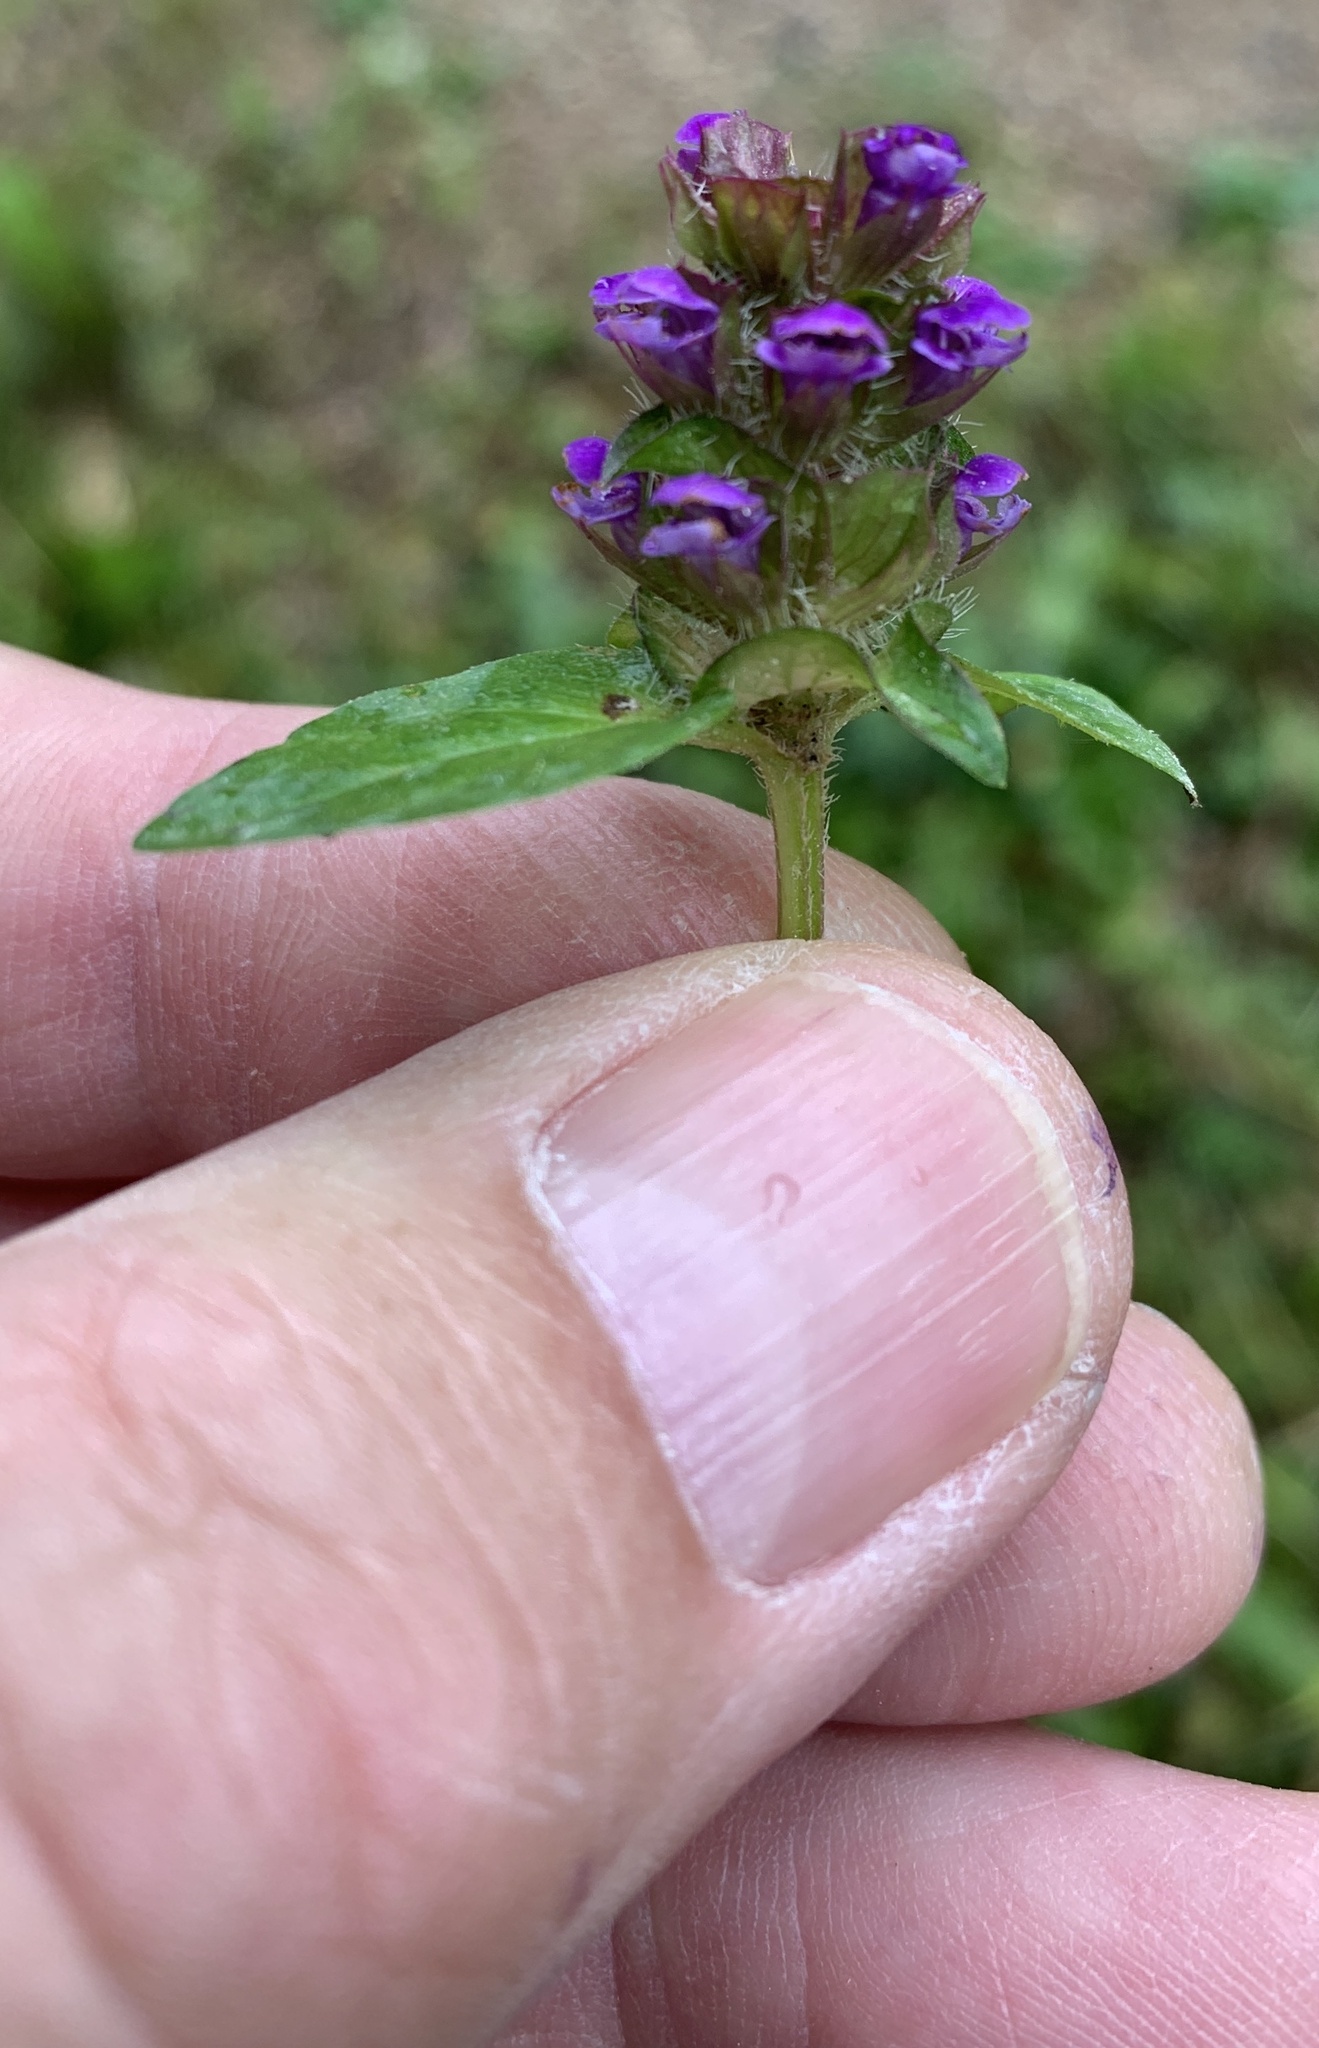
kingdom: Plantae
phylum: Tracheophyta
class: Magnoliopsida
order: Lamiales
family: Lamiaceae
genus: Prunella
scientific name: Prunella vulgaris
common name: Heal-all
